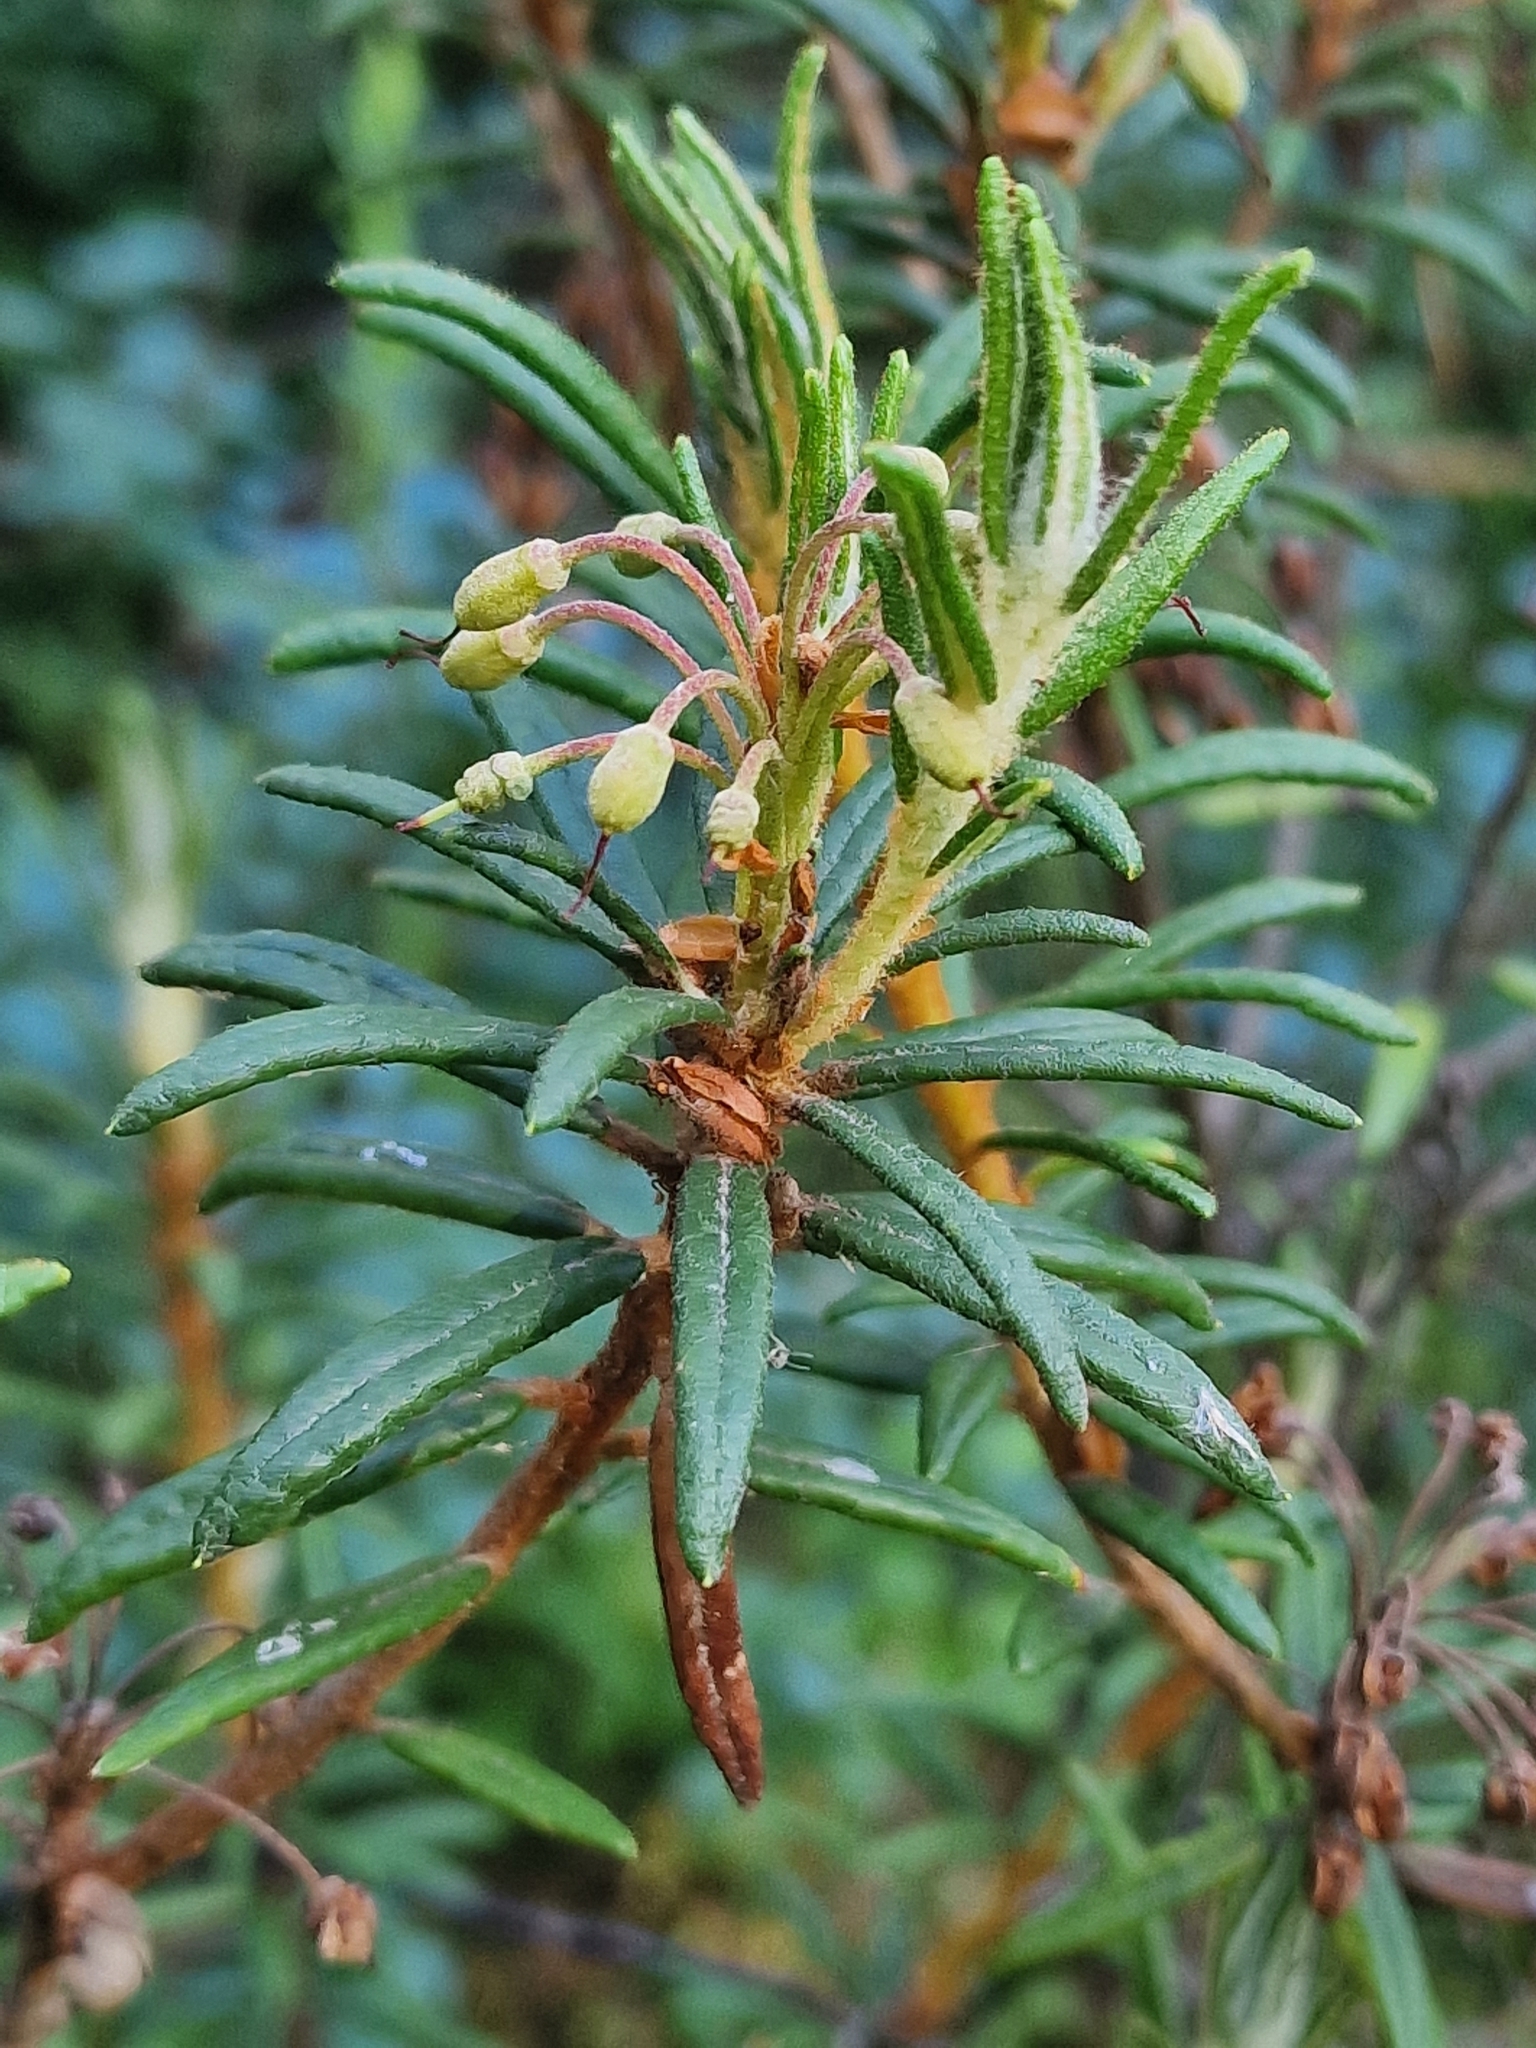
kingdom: Plantae
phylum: Tracheophyta
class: Magnoliopsida
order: Ericales
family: Ericaceae
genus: Rhododendron
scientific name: Rhododendron tomentosum
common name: Marsh labrador tea
